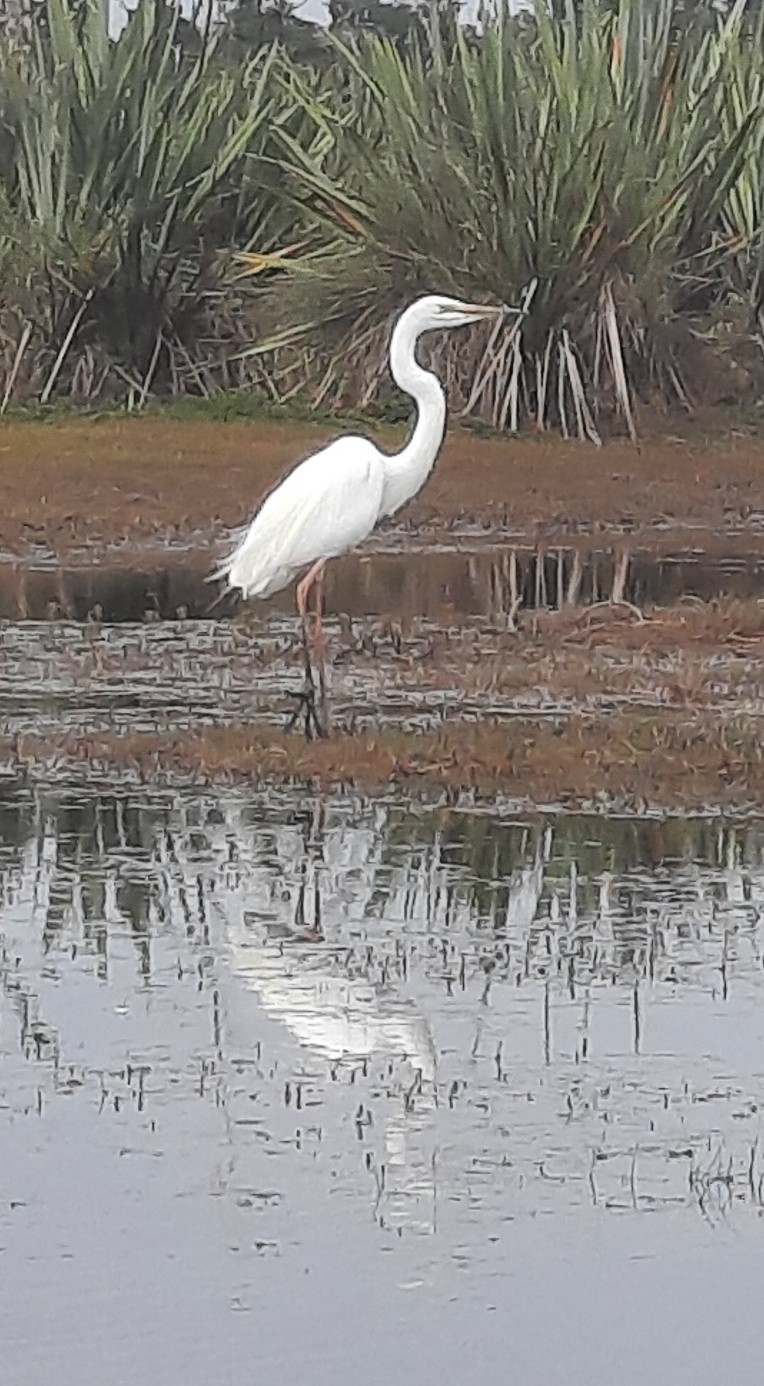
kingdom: Animalia
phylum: Chordata
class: Aves
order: Pelecaniformes
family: Ardeidae
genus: Ardea
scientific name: Ardea modesta
